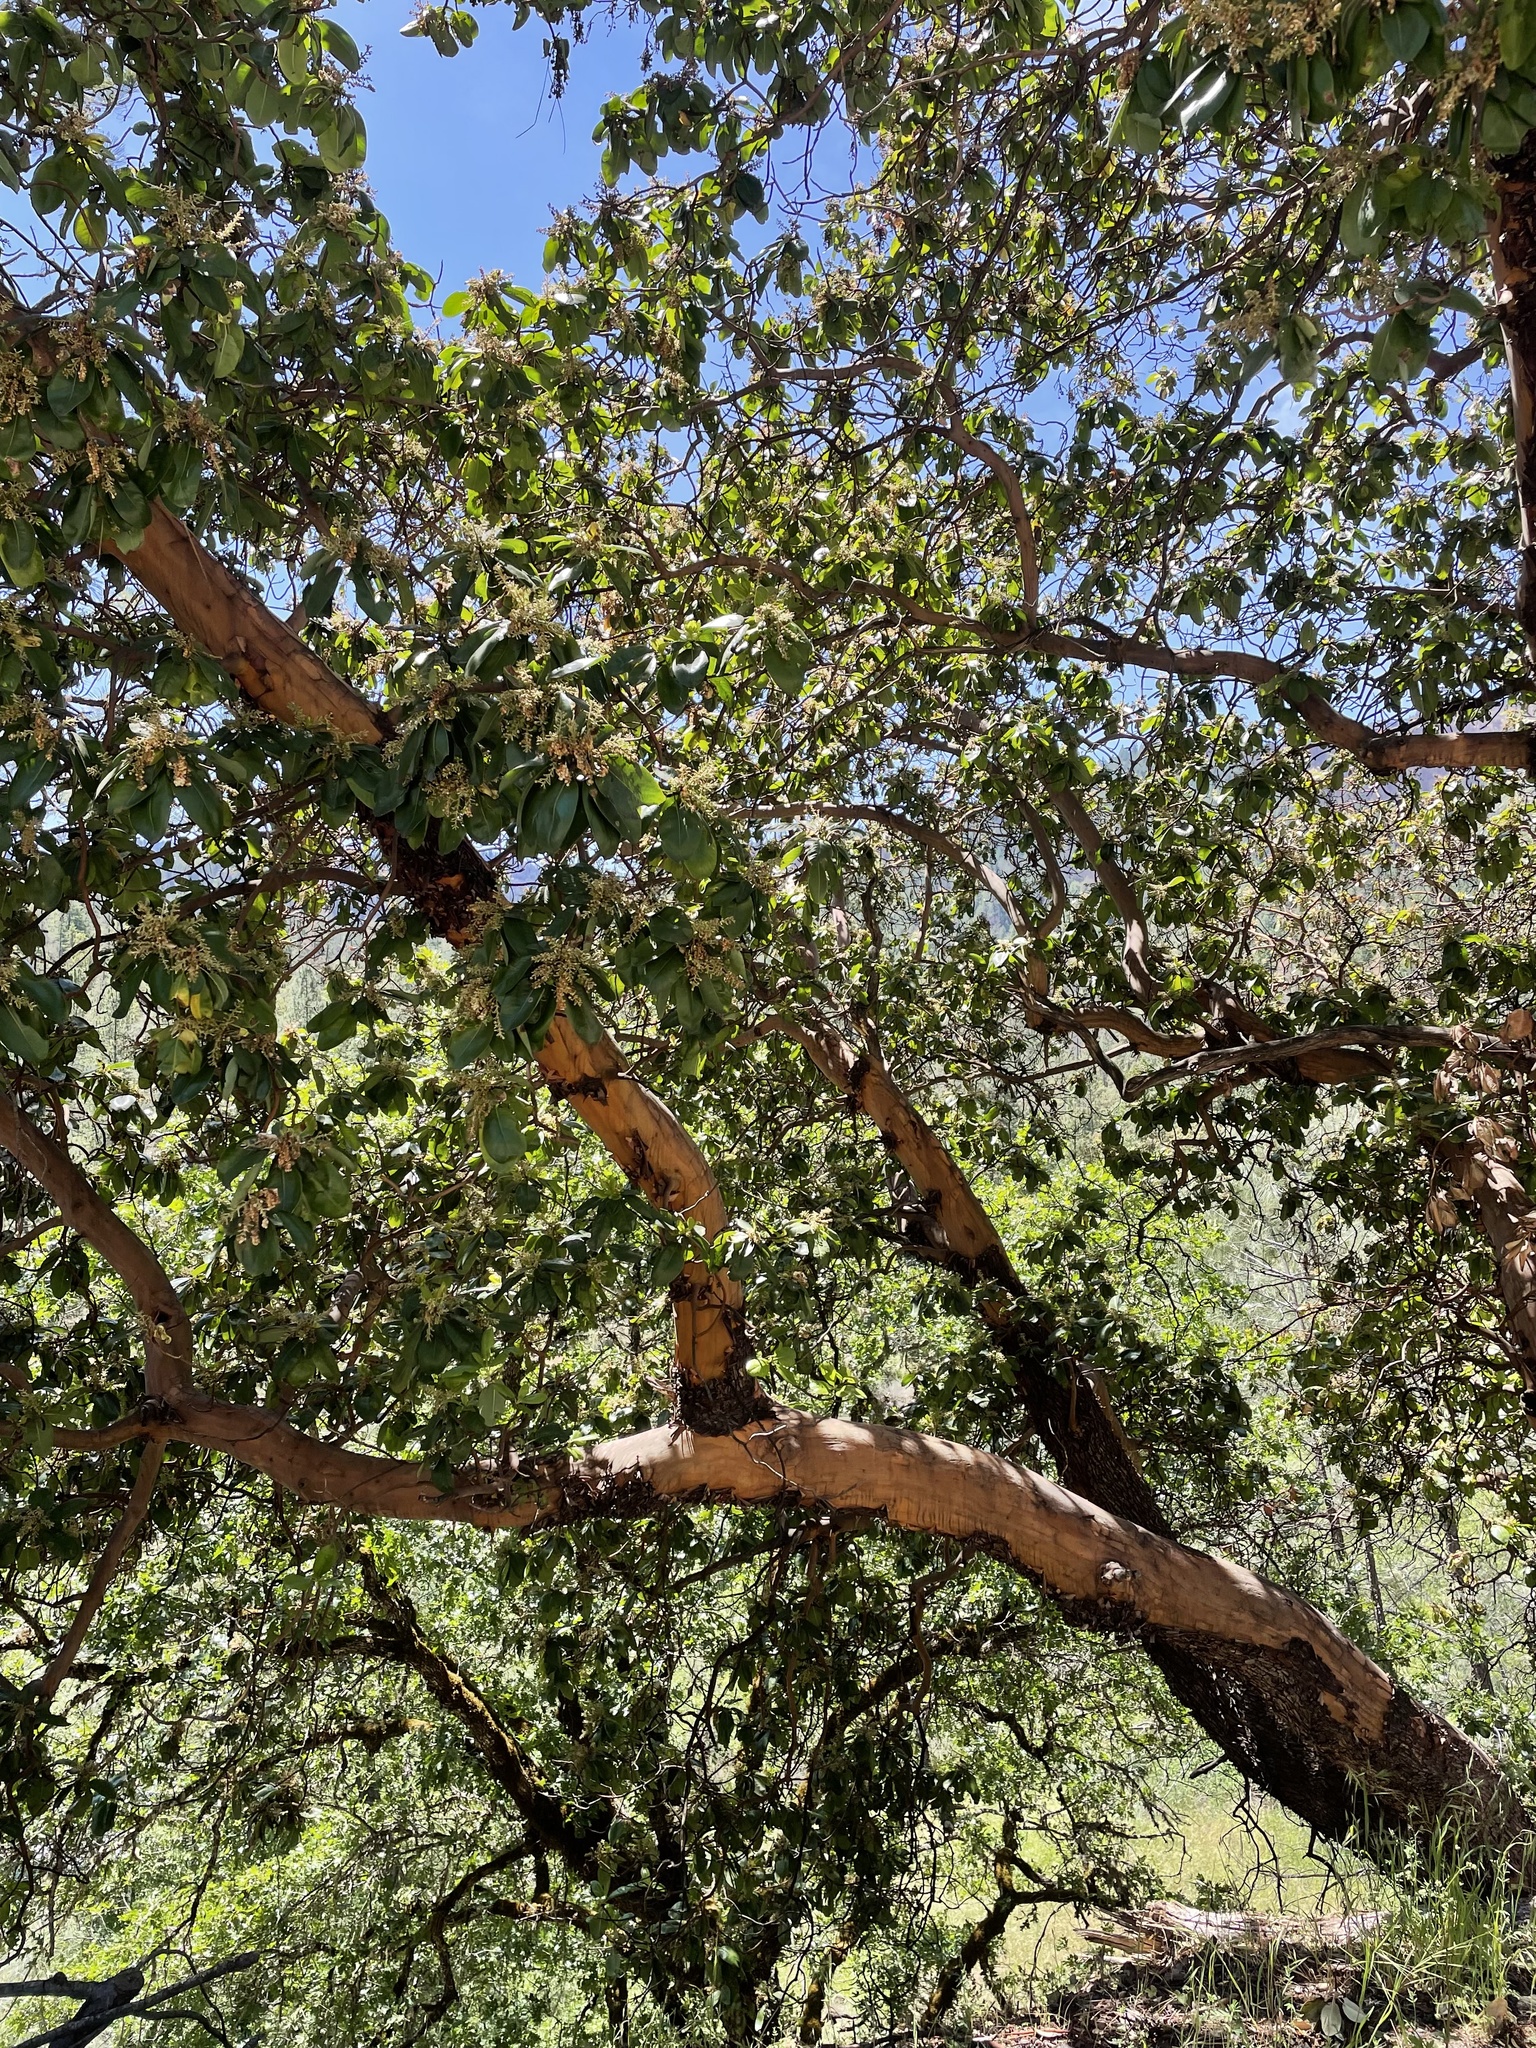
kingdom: Plantae
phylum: Tracheophyta
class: Magnoliopsida
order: Ericales
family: Ericaceae
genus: Arbutus
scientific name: Arbutus menziesii
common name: Pacific madrone
